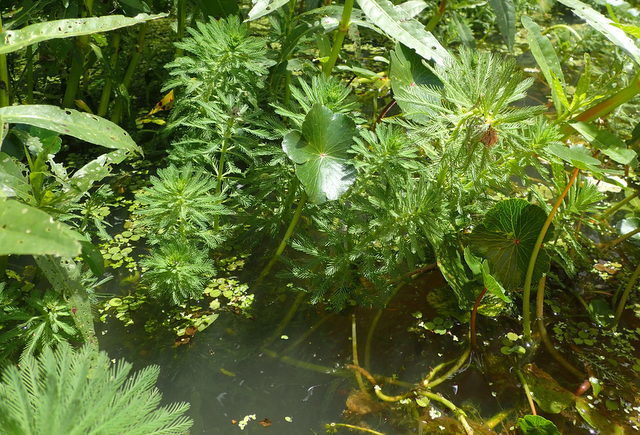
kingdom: Plantae
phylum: Tracheophyta
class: Magnoliopsida
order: Saxifragales
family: Haloragaceae
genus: Myriophyllum
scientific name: Myriophyllum aquaticum
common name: Parrot's feather
